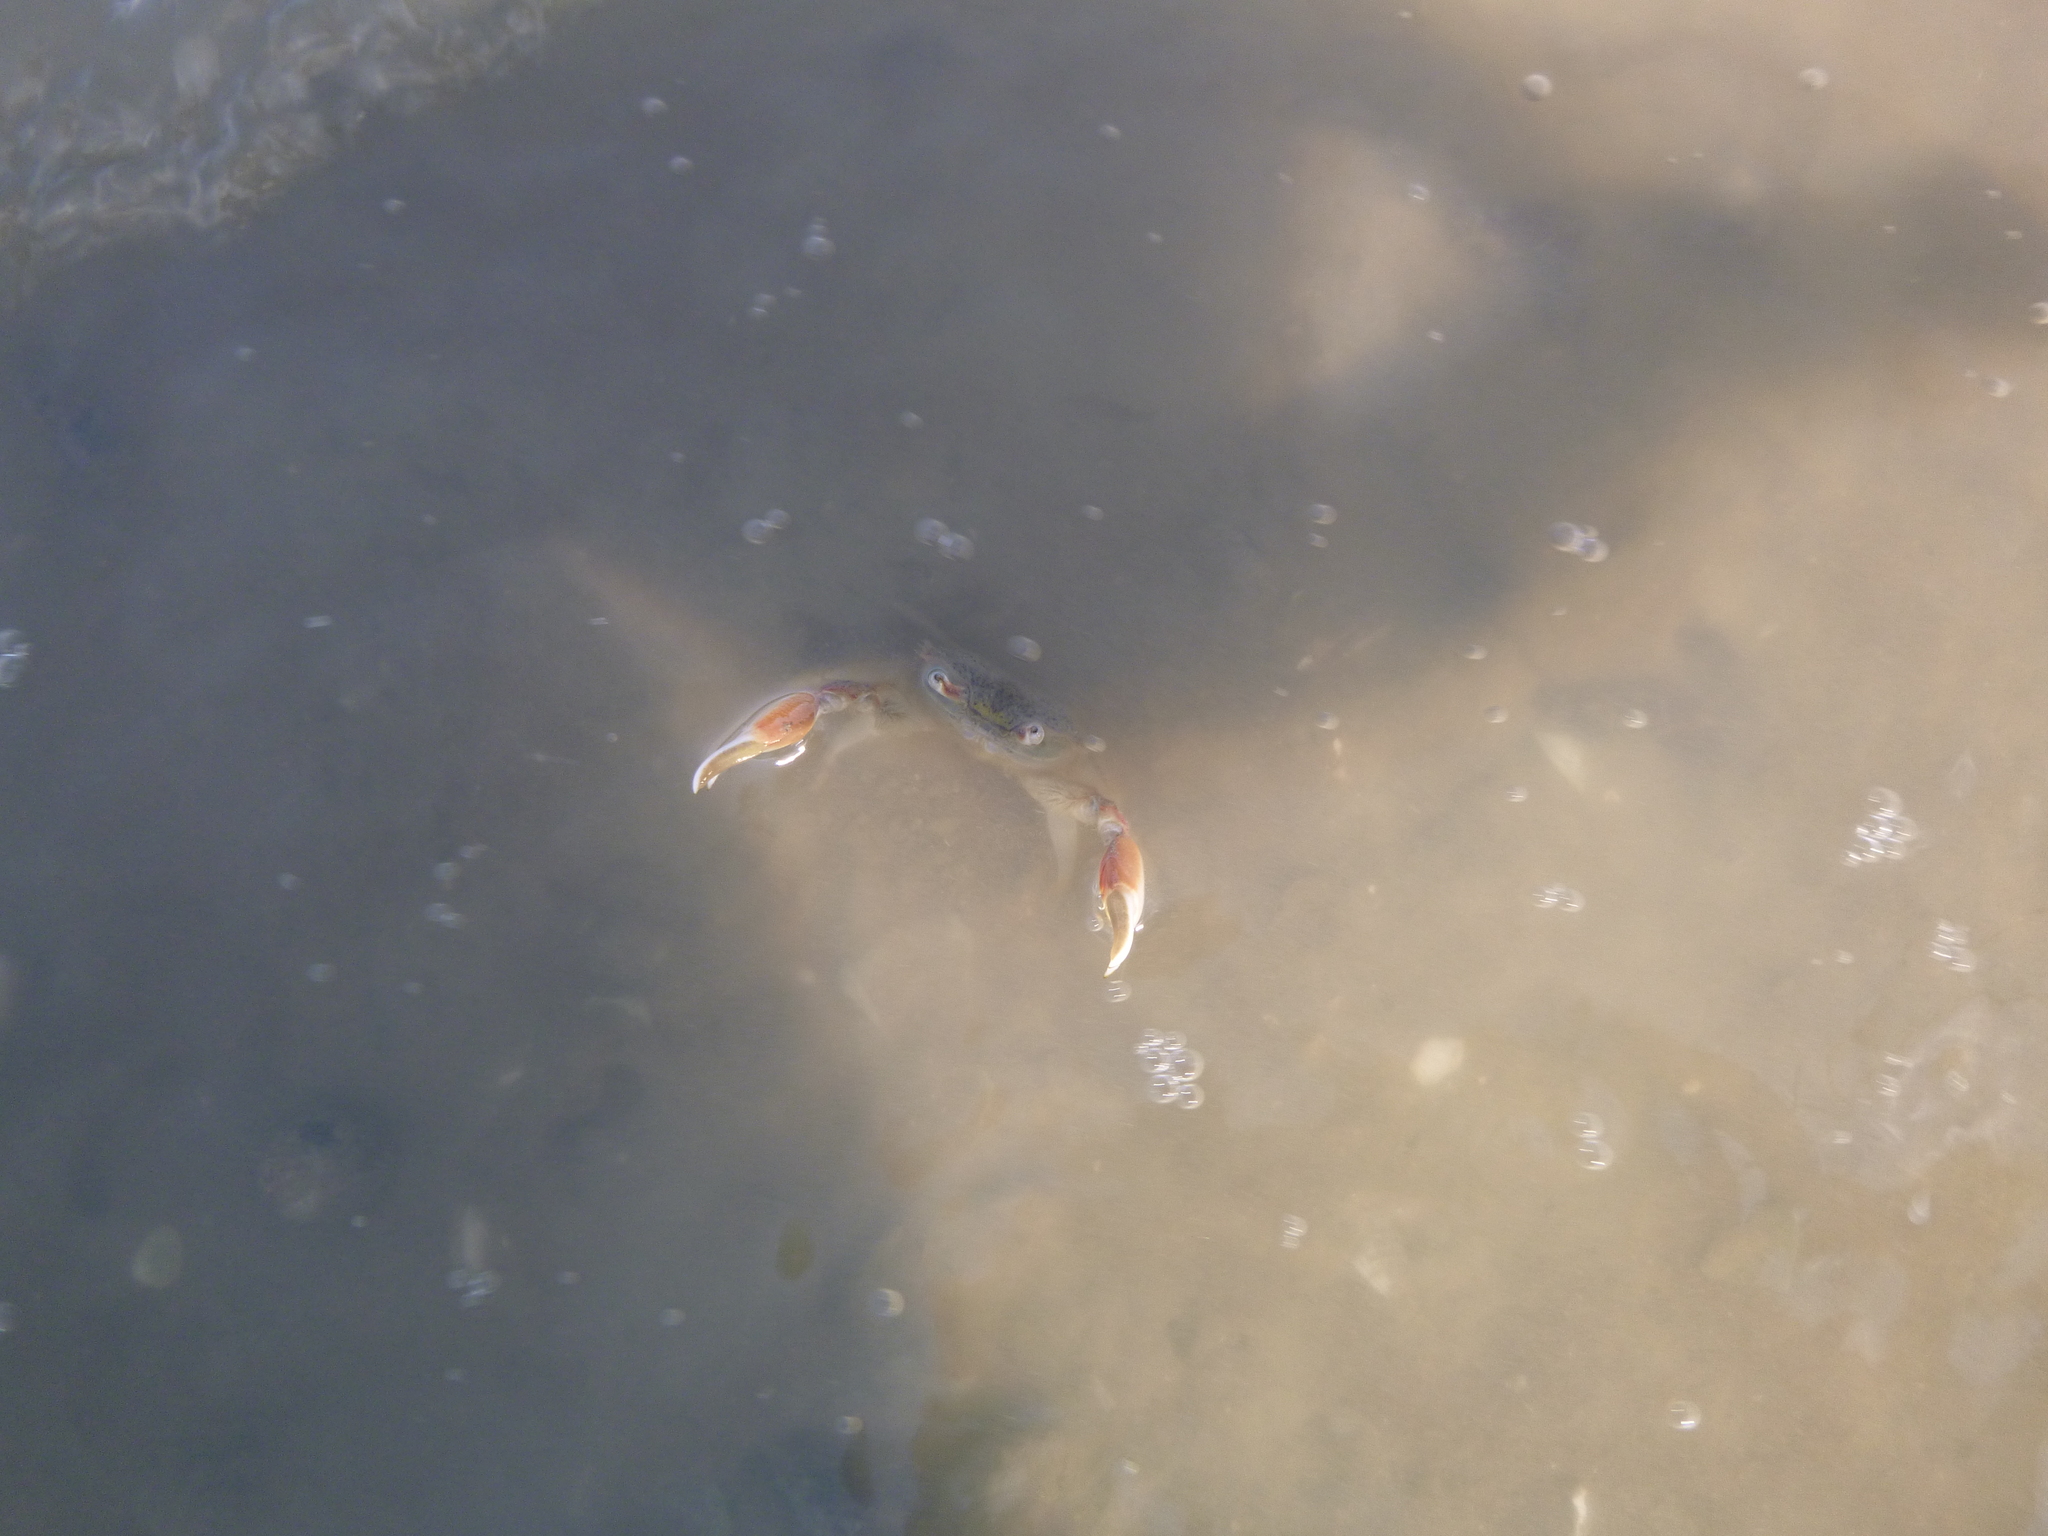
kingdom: Animalia
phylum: Arthropoda
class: Malacostraca
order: Decapoda
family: Macrophthalmidae
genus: Hemiplax
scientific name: Hemiplax hirtipes
